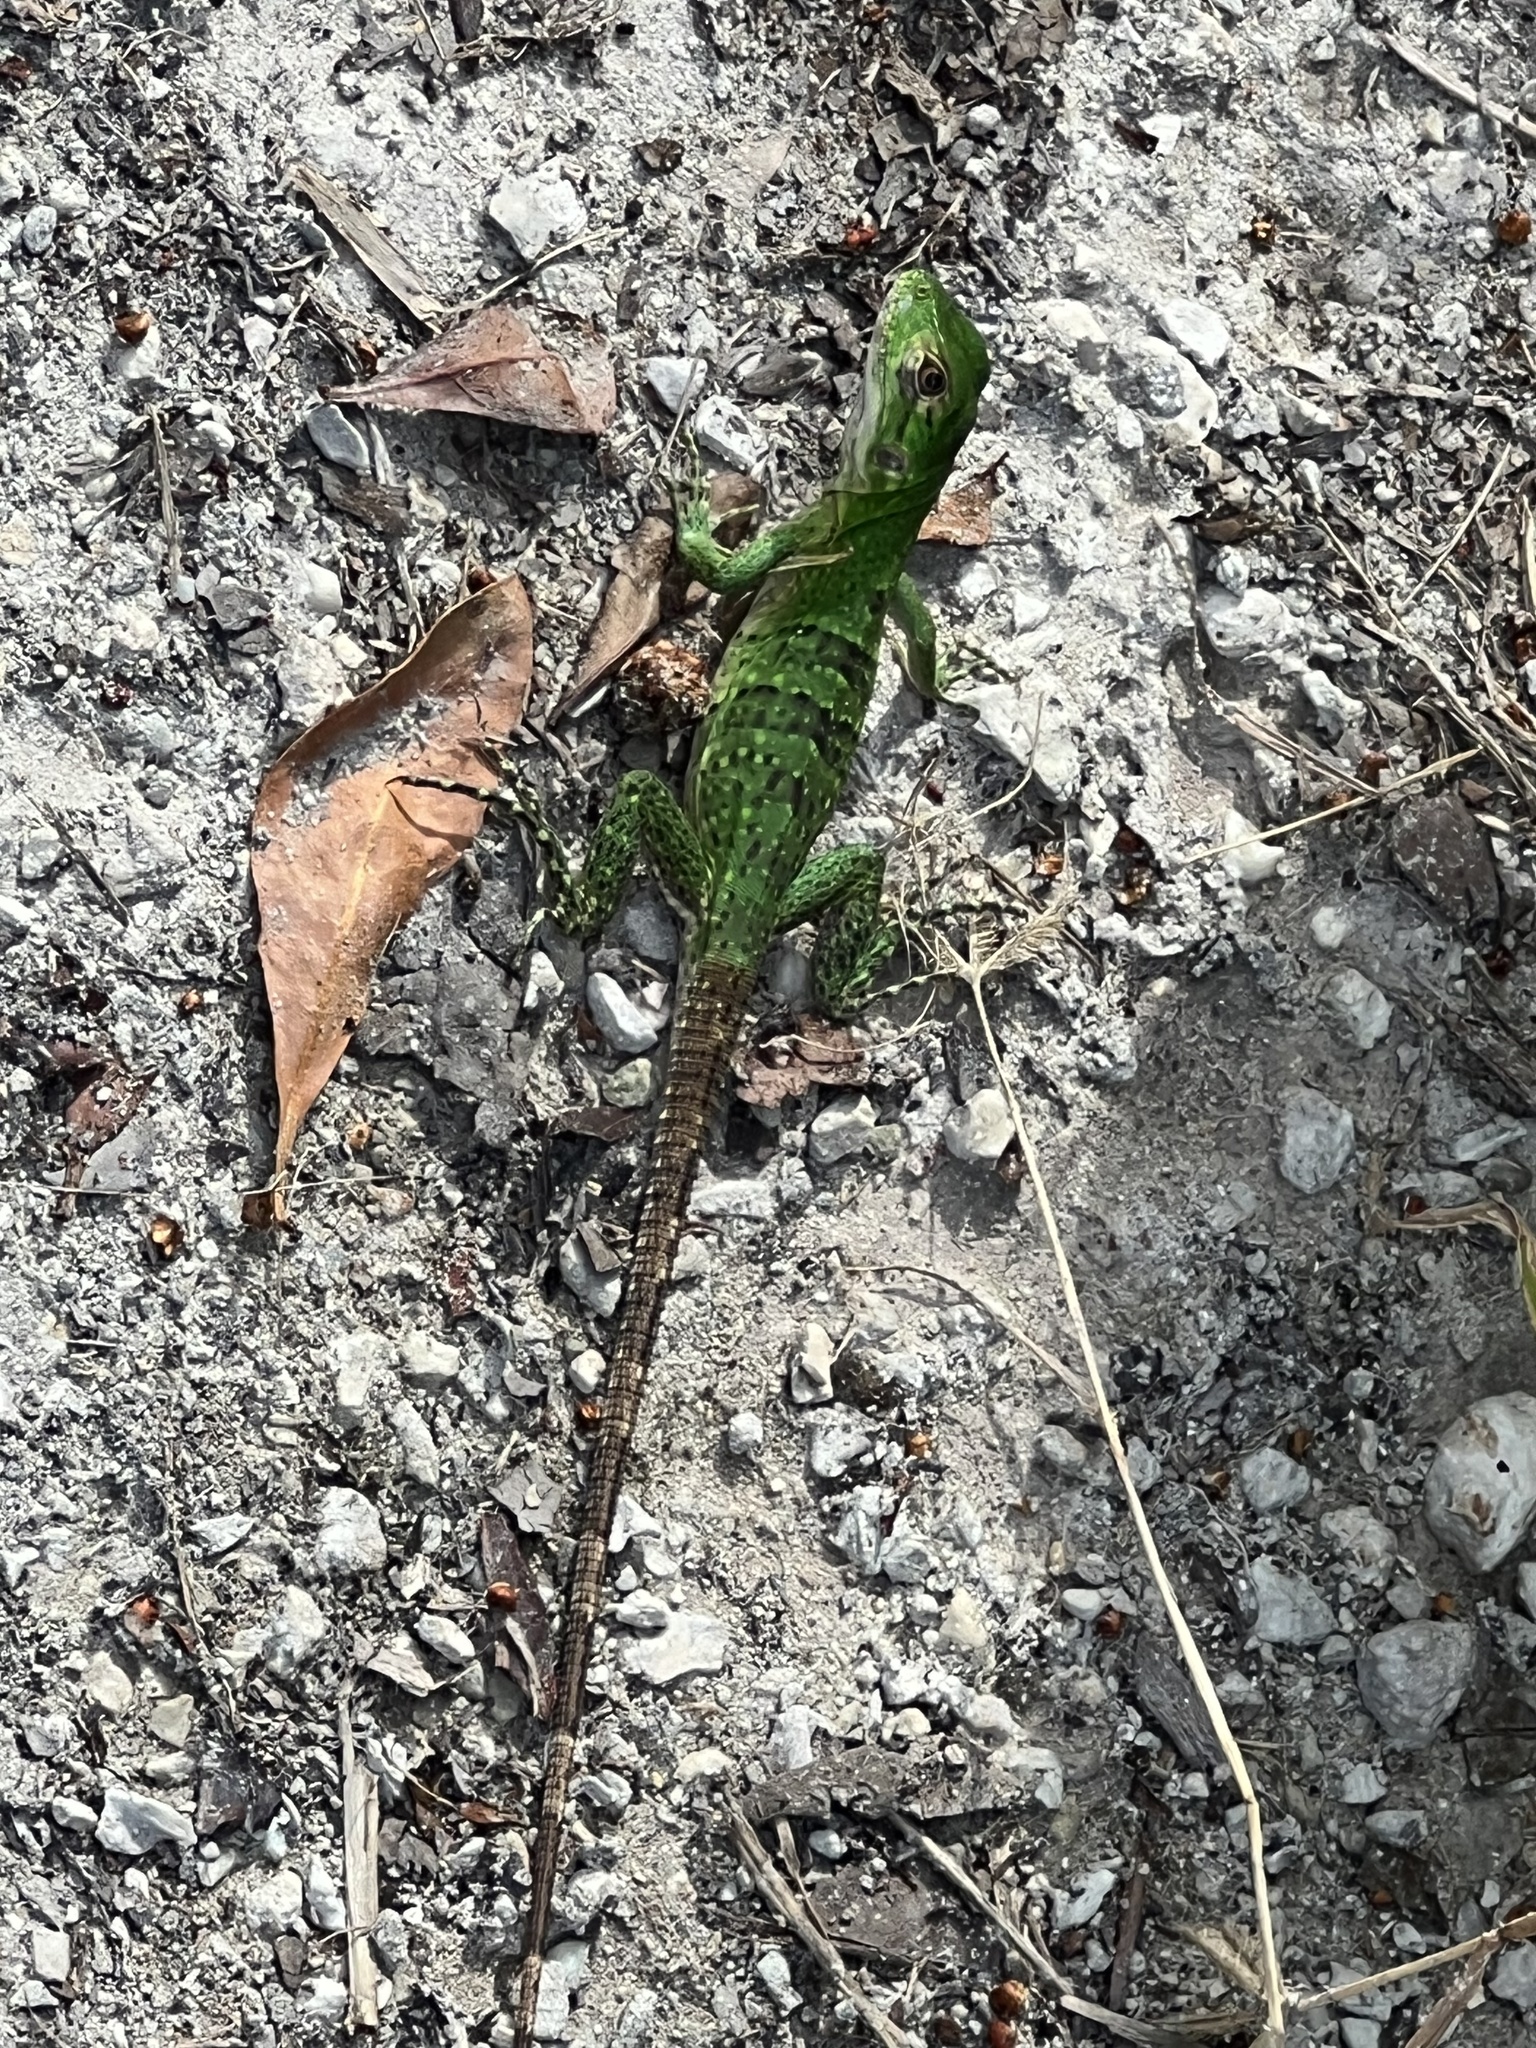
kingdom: Animalia
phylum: Chordata
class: Squamata
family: Iguanidae
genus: Ctenosaura
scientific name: Ctenosaura similis
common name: Black spiny-tailed iguana
